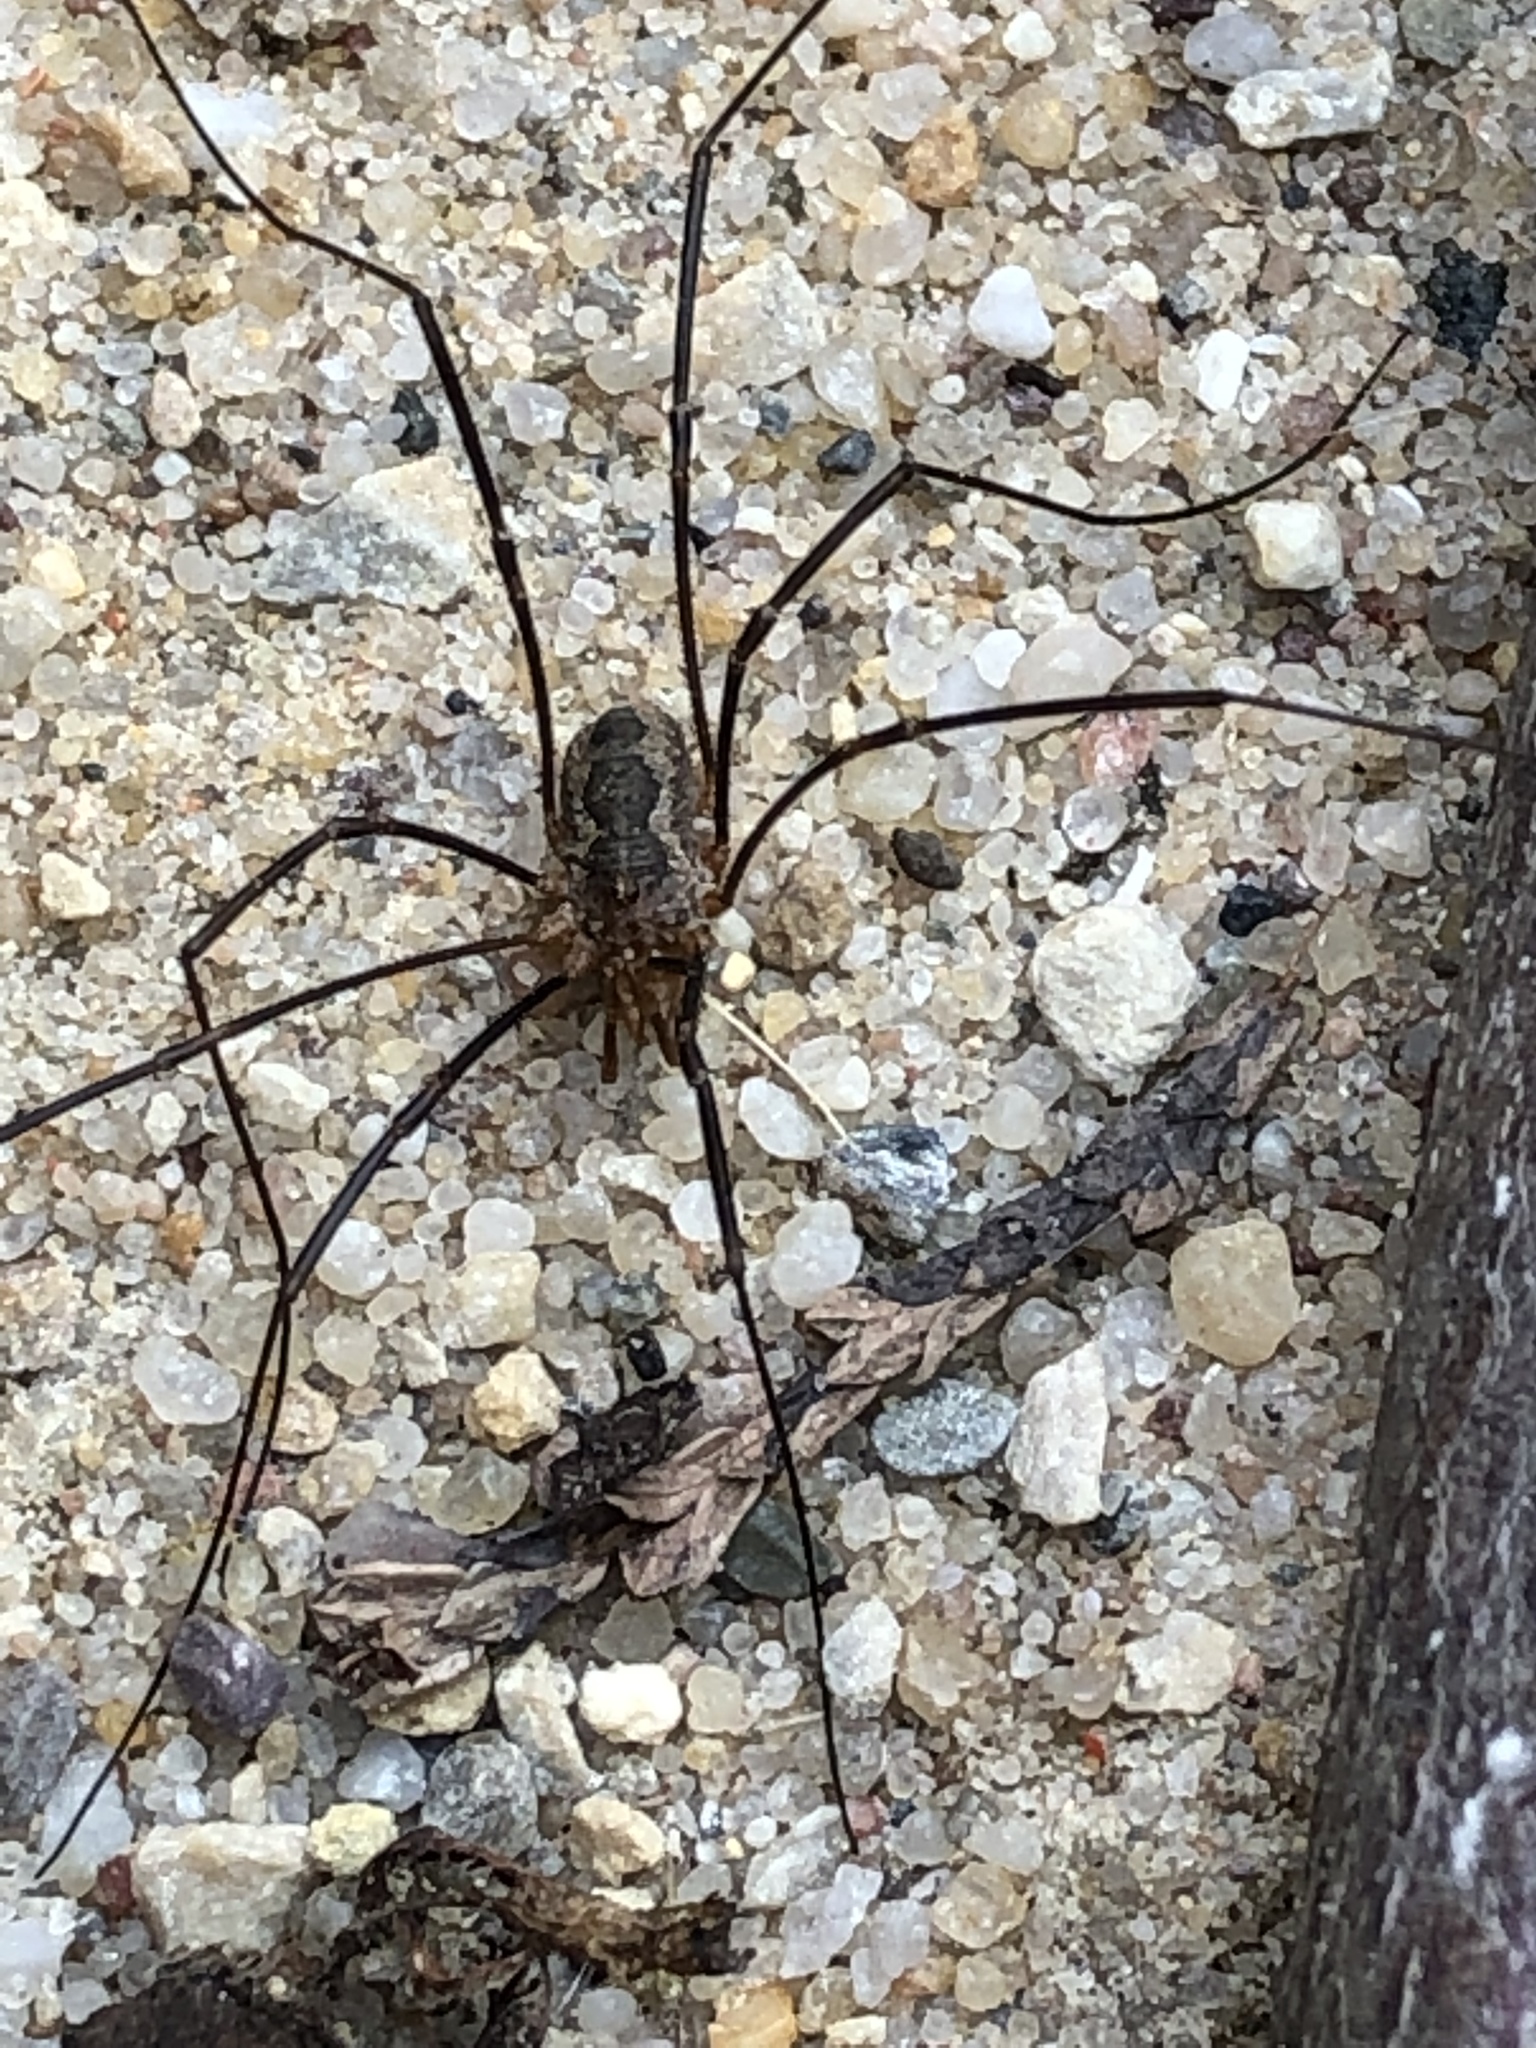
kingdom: Animalia
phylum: Arthropoda
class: Arachnida
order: Opiliones
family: Phalangiidae
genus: Phalangium
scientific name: Phalangium opilio
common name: Daddy longleg
